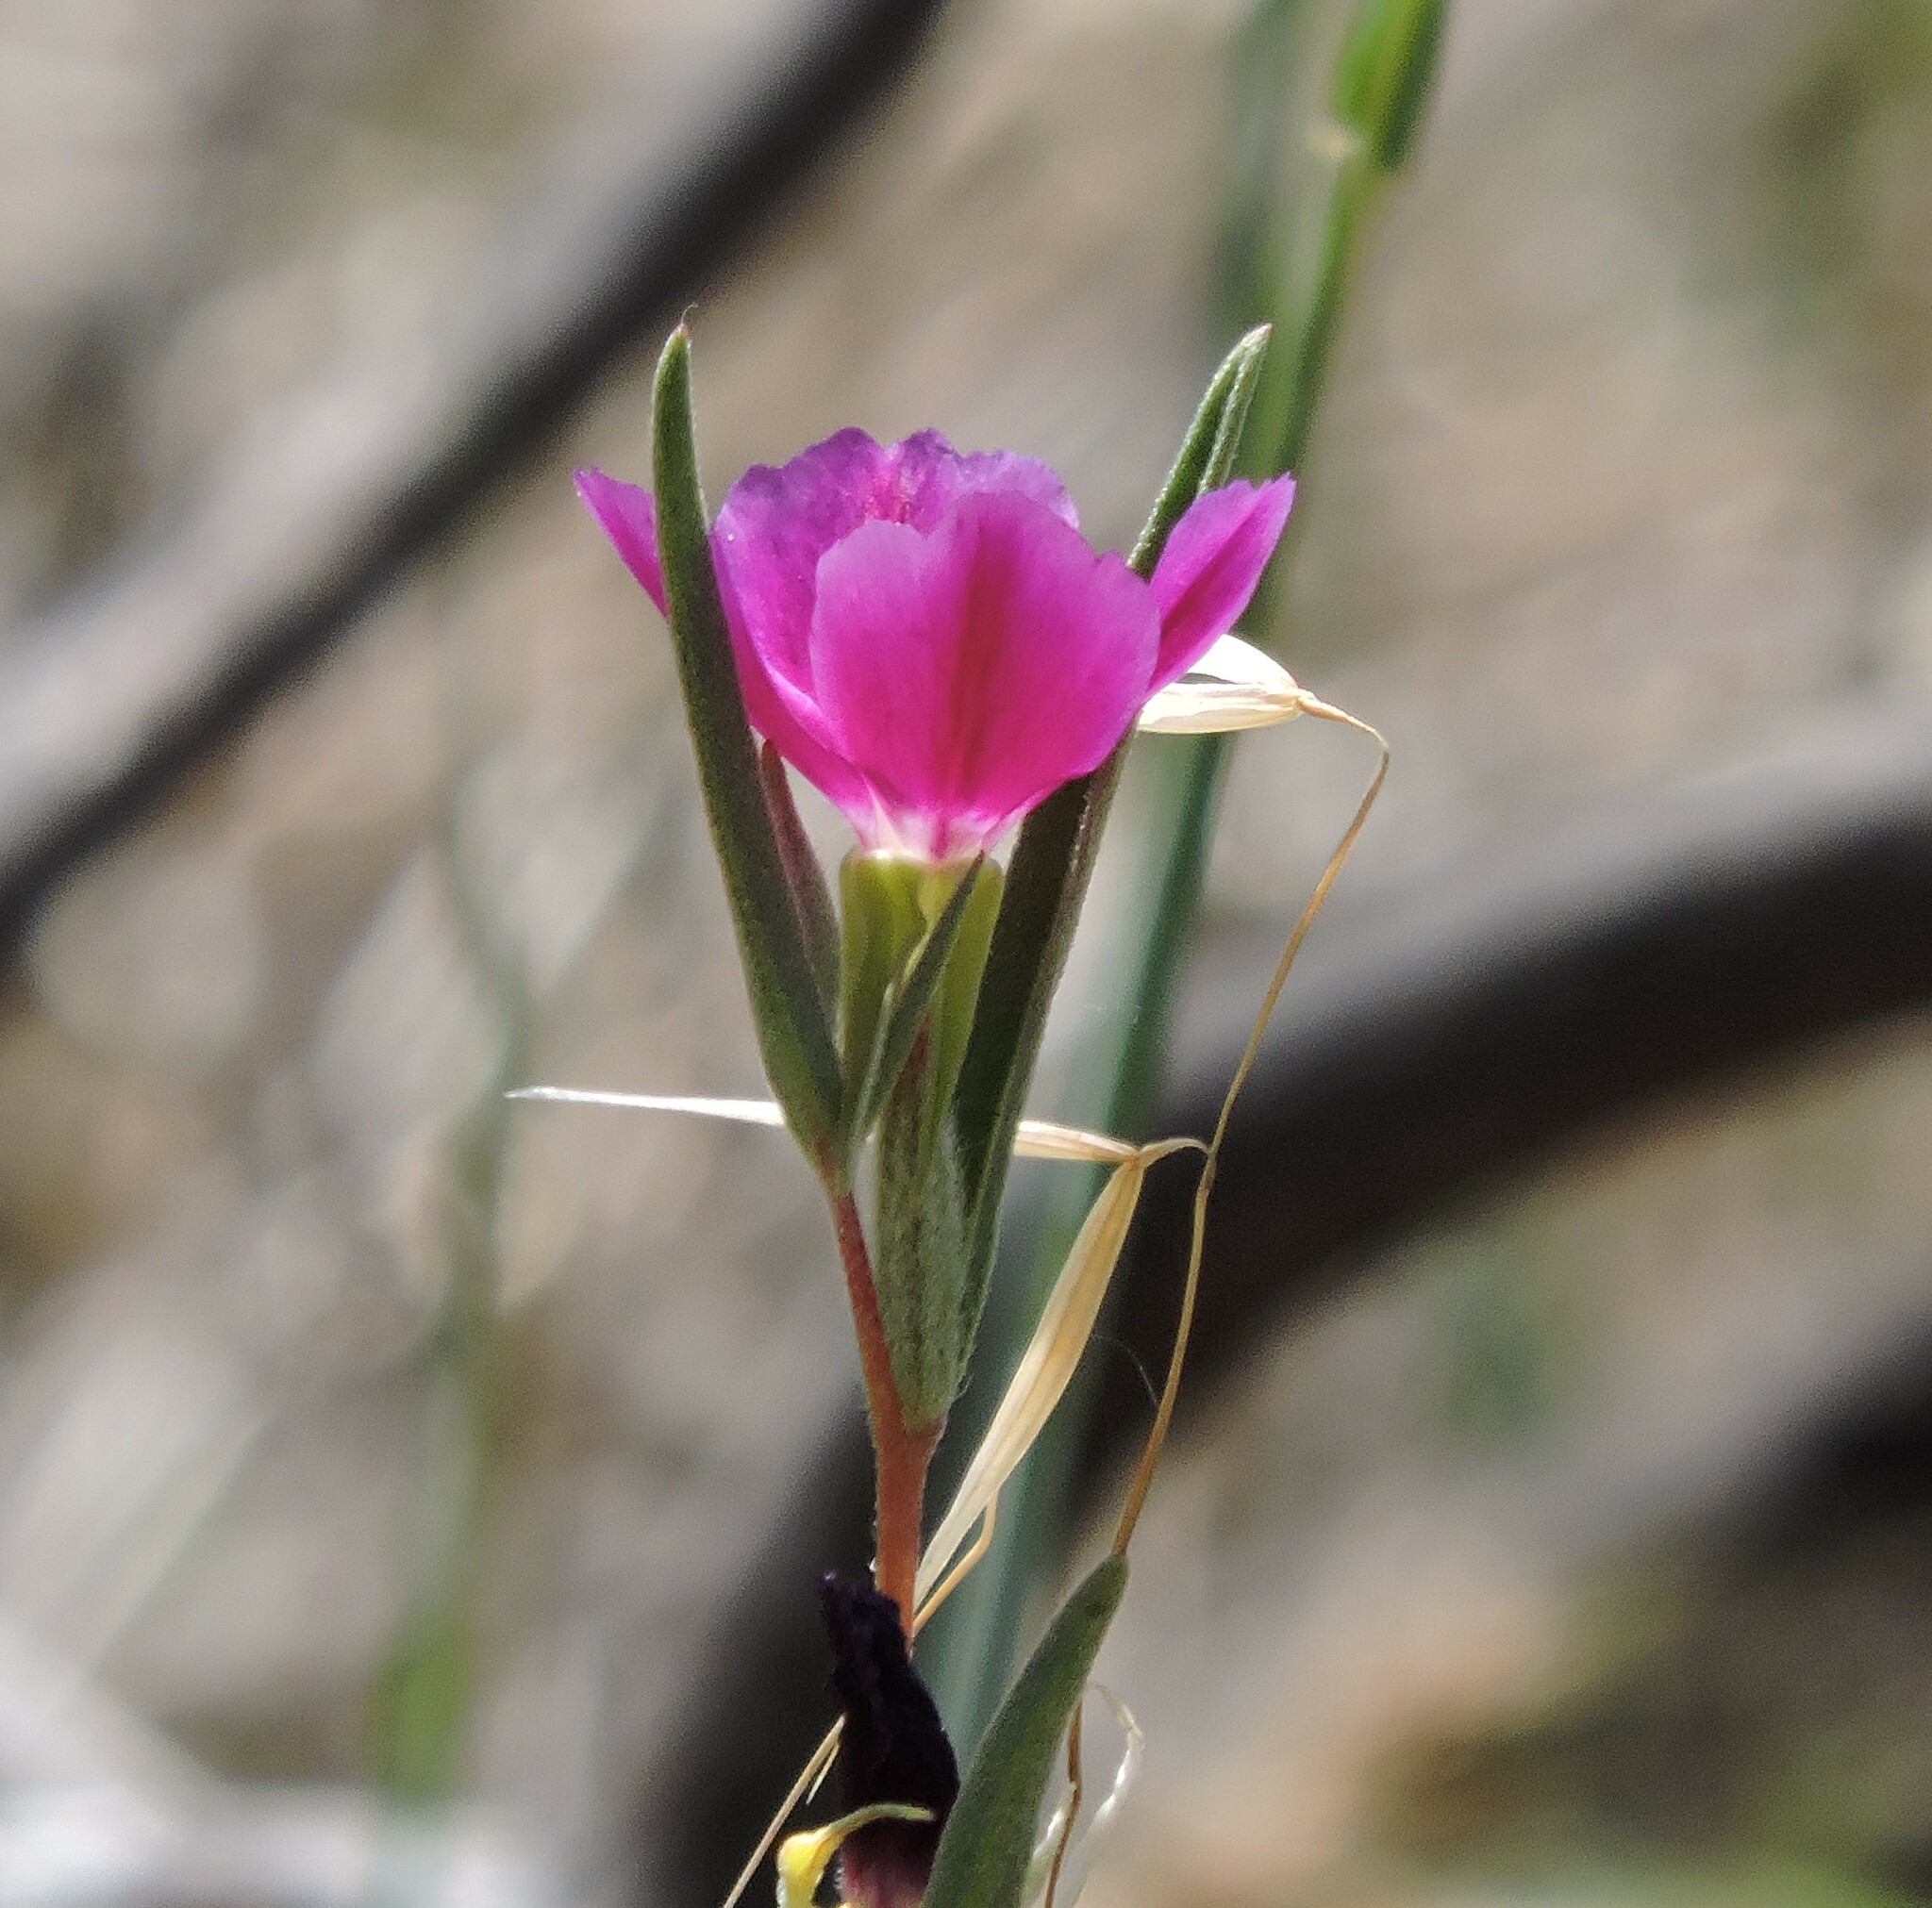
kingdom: Plantae
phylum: Tracheophyta
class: Magnoliopsida
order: Myrtales
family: Onagraceae
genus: Clarkia
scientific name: Clarkia purpurea
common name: Purple clarkia
